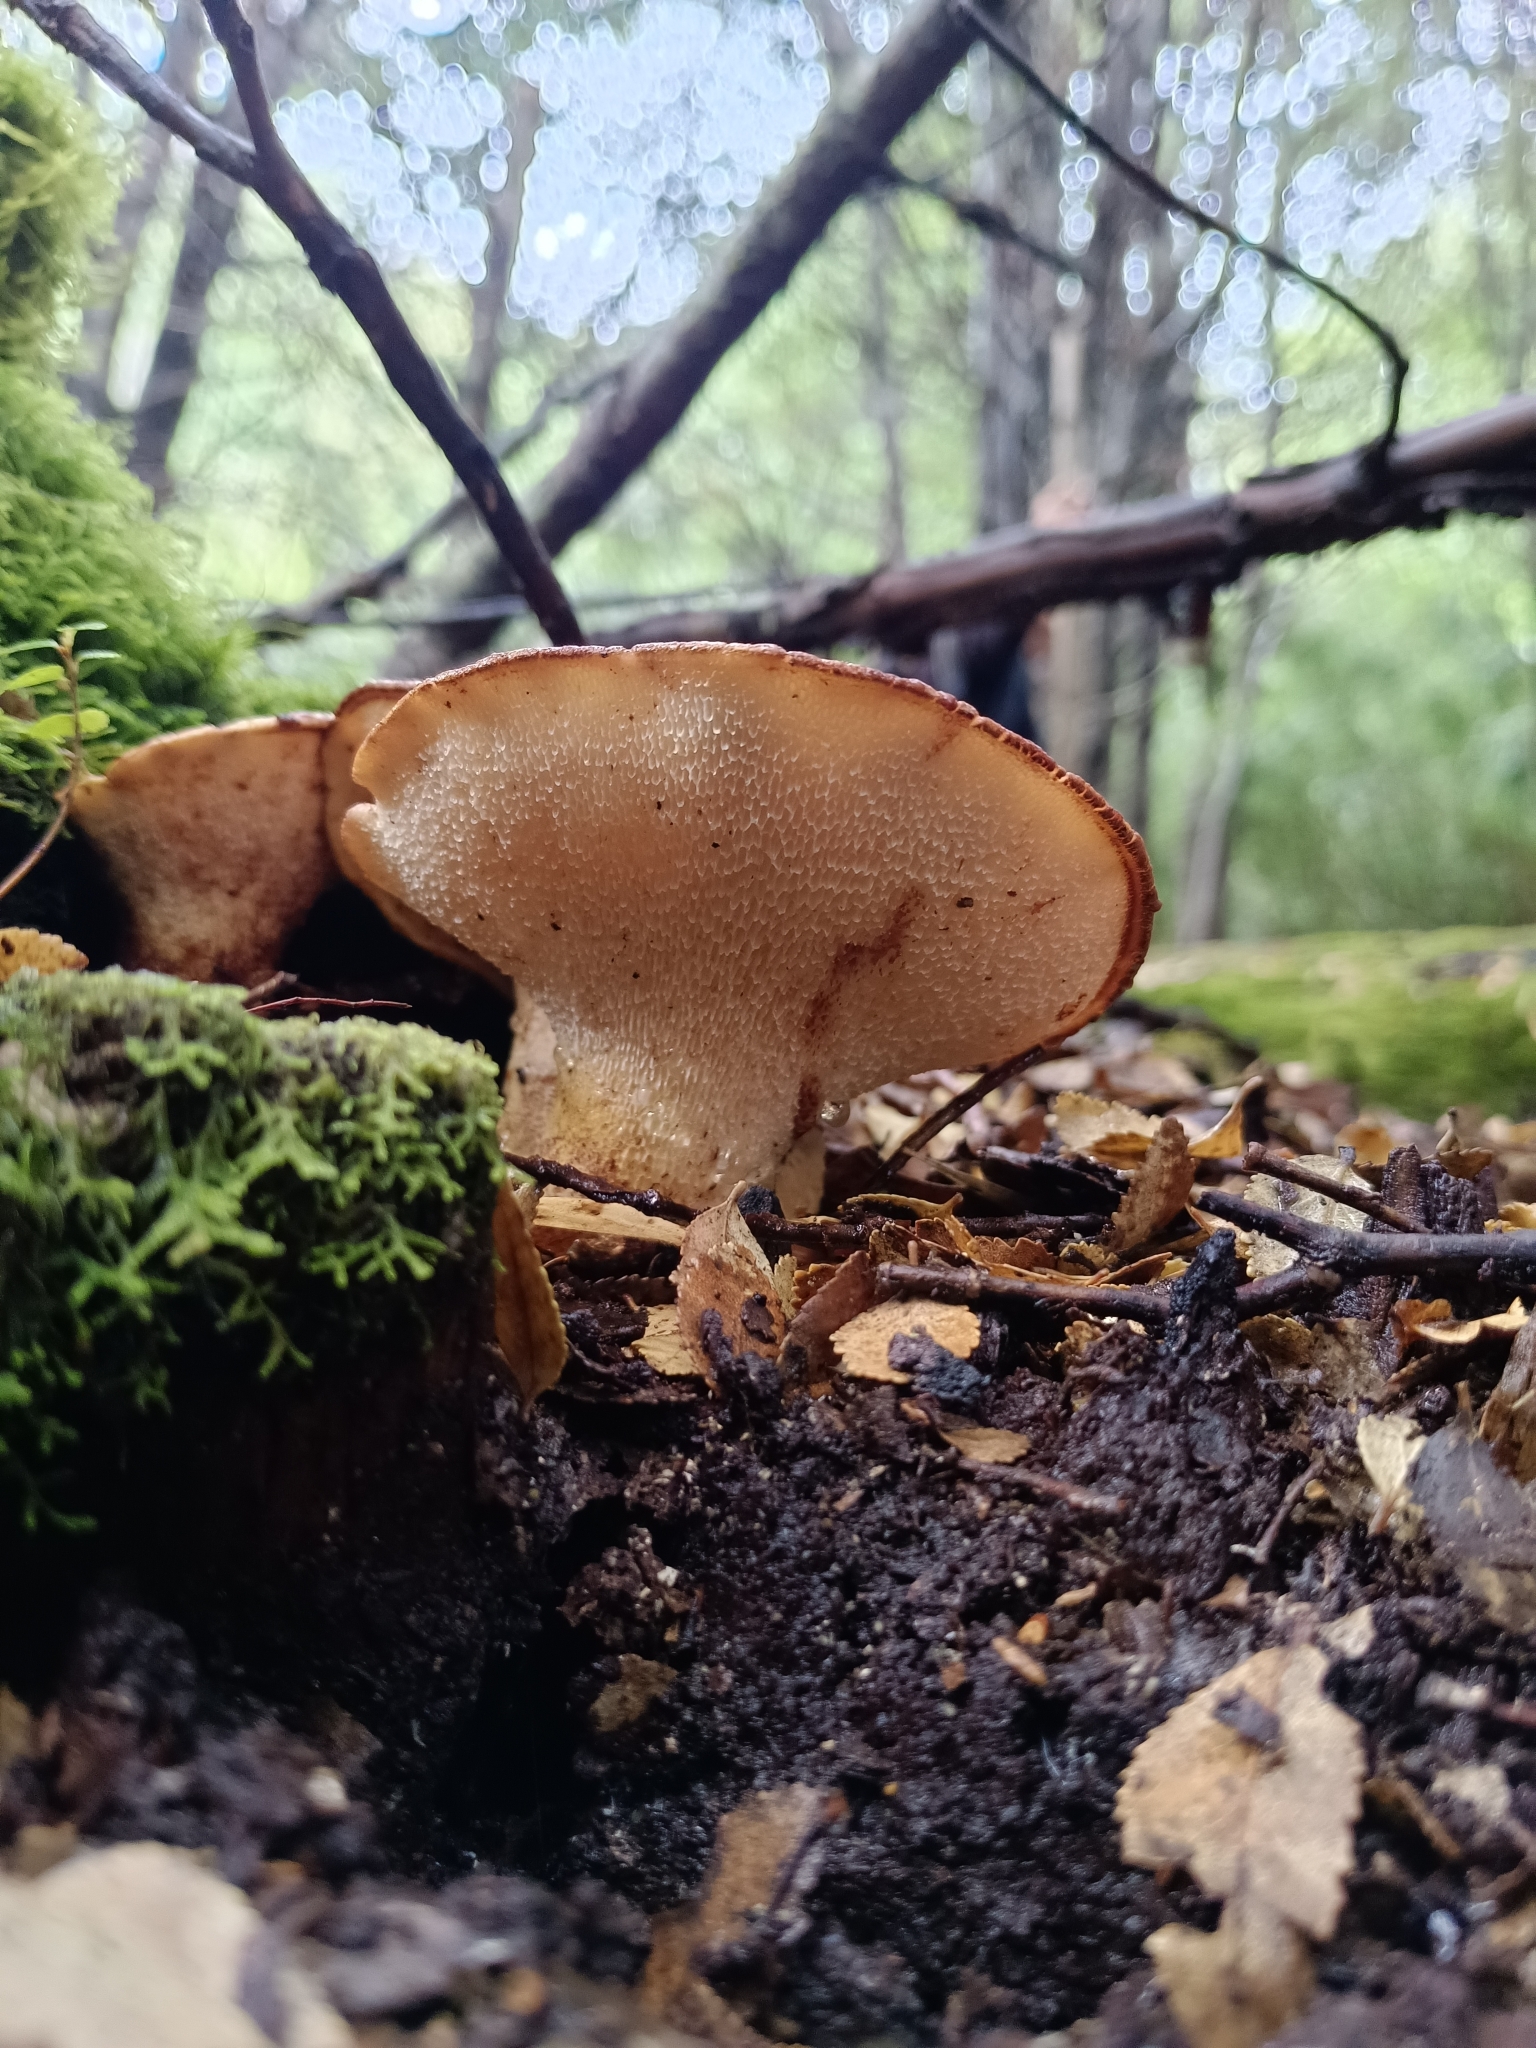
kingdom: Fungi
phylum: Basidiomycota
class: Agaricomycetes
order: Polyporales
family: Fomitopsidaceae
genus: Fomitopsis
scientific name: Fomitopsis
